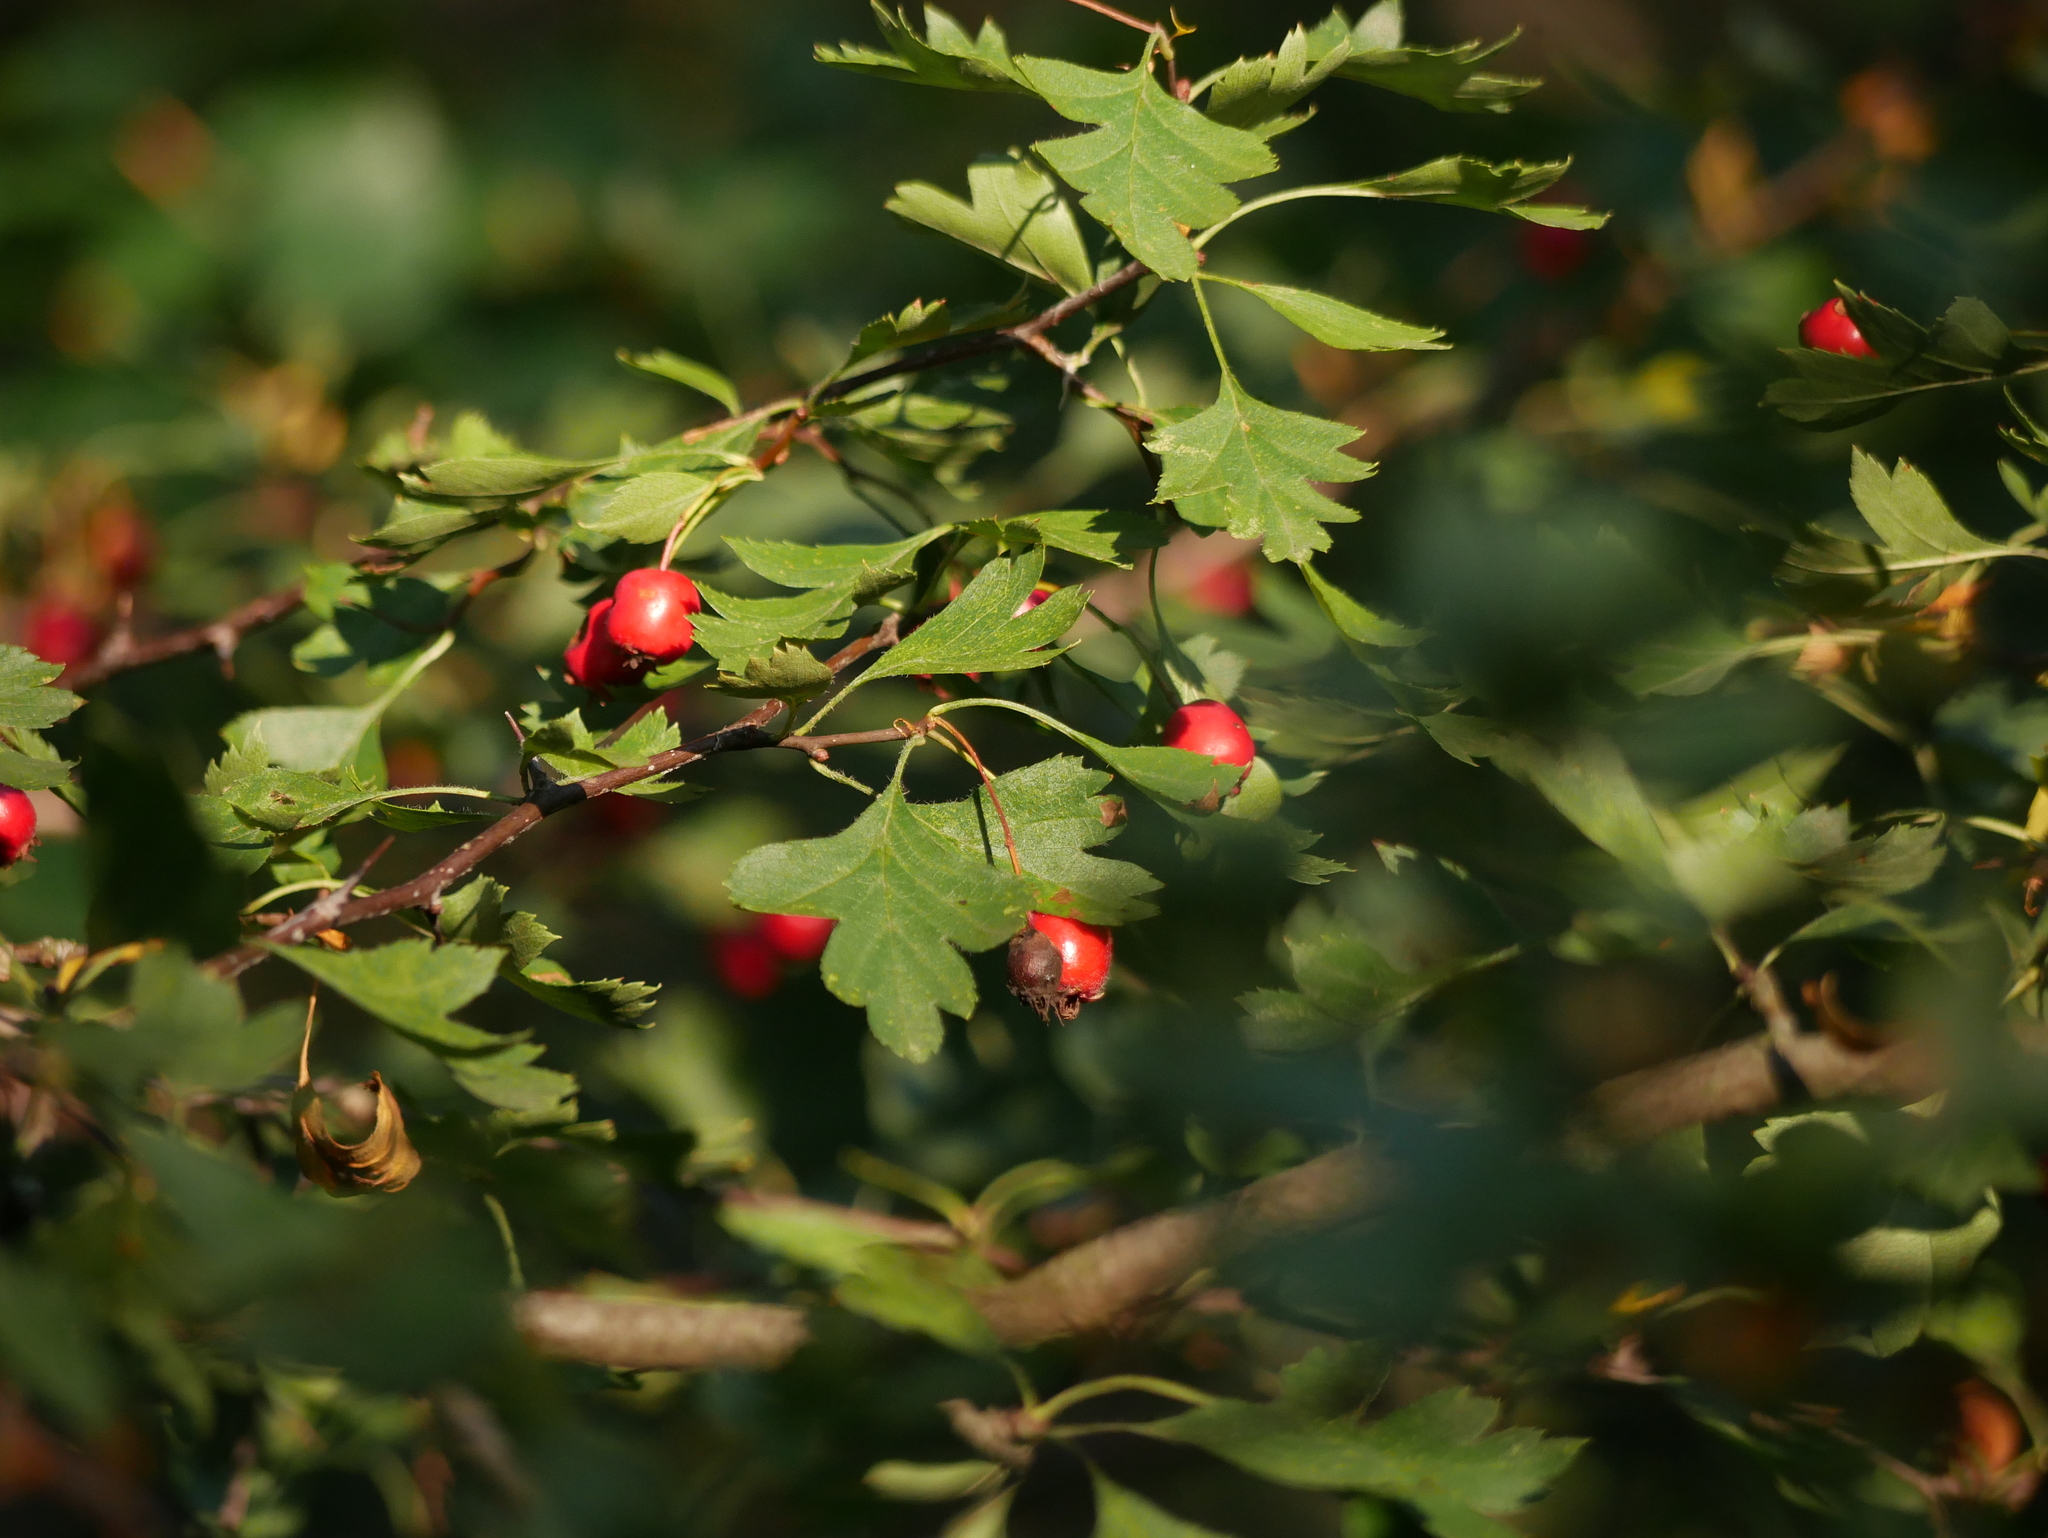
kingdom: Plantae
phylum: Tracheophyta
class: Magnoliopsida
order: Rosales
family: Rosaceae
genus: Crataegus
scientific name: Crataegus monogyna
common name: Hawthorn
